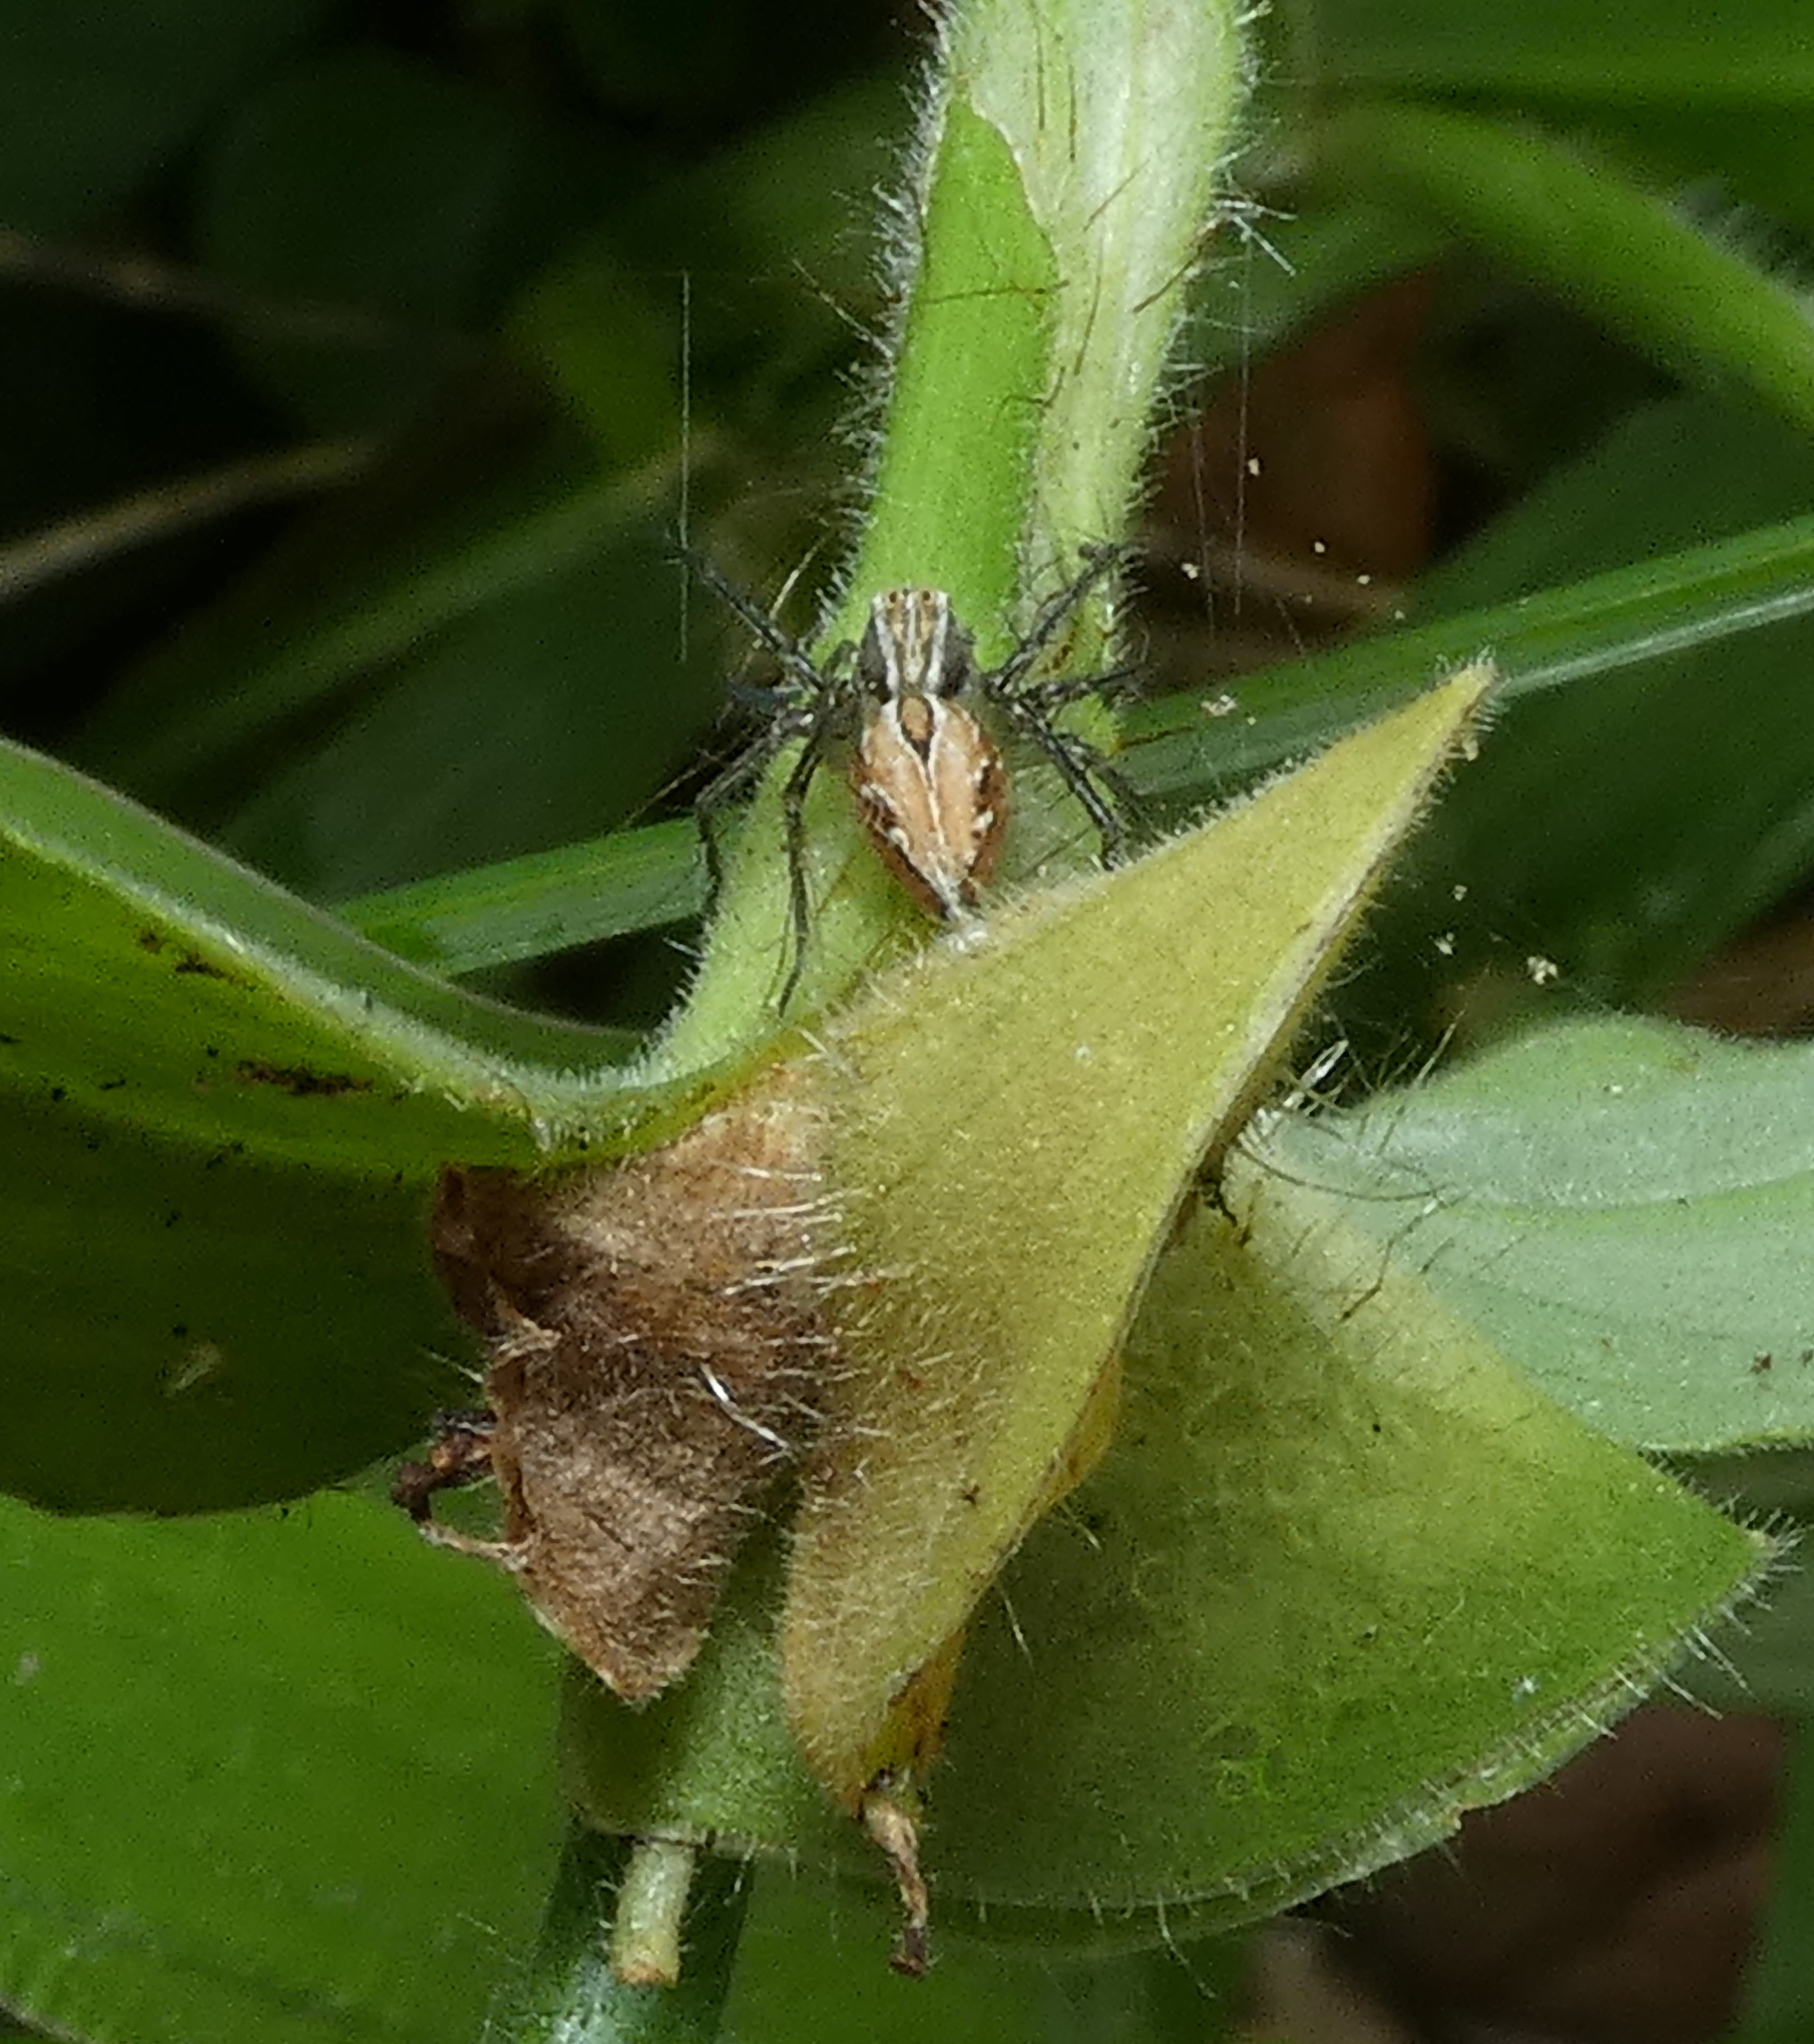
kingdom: Animalia
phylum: Arthropoda
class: Arachnida
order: Araneae
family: Oxyopidae
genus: Oxyopes
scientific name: Oxyopes salticus
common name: Lynx spiders
